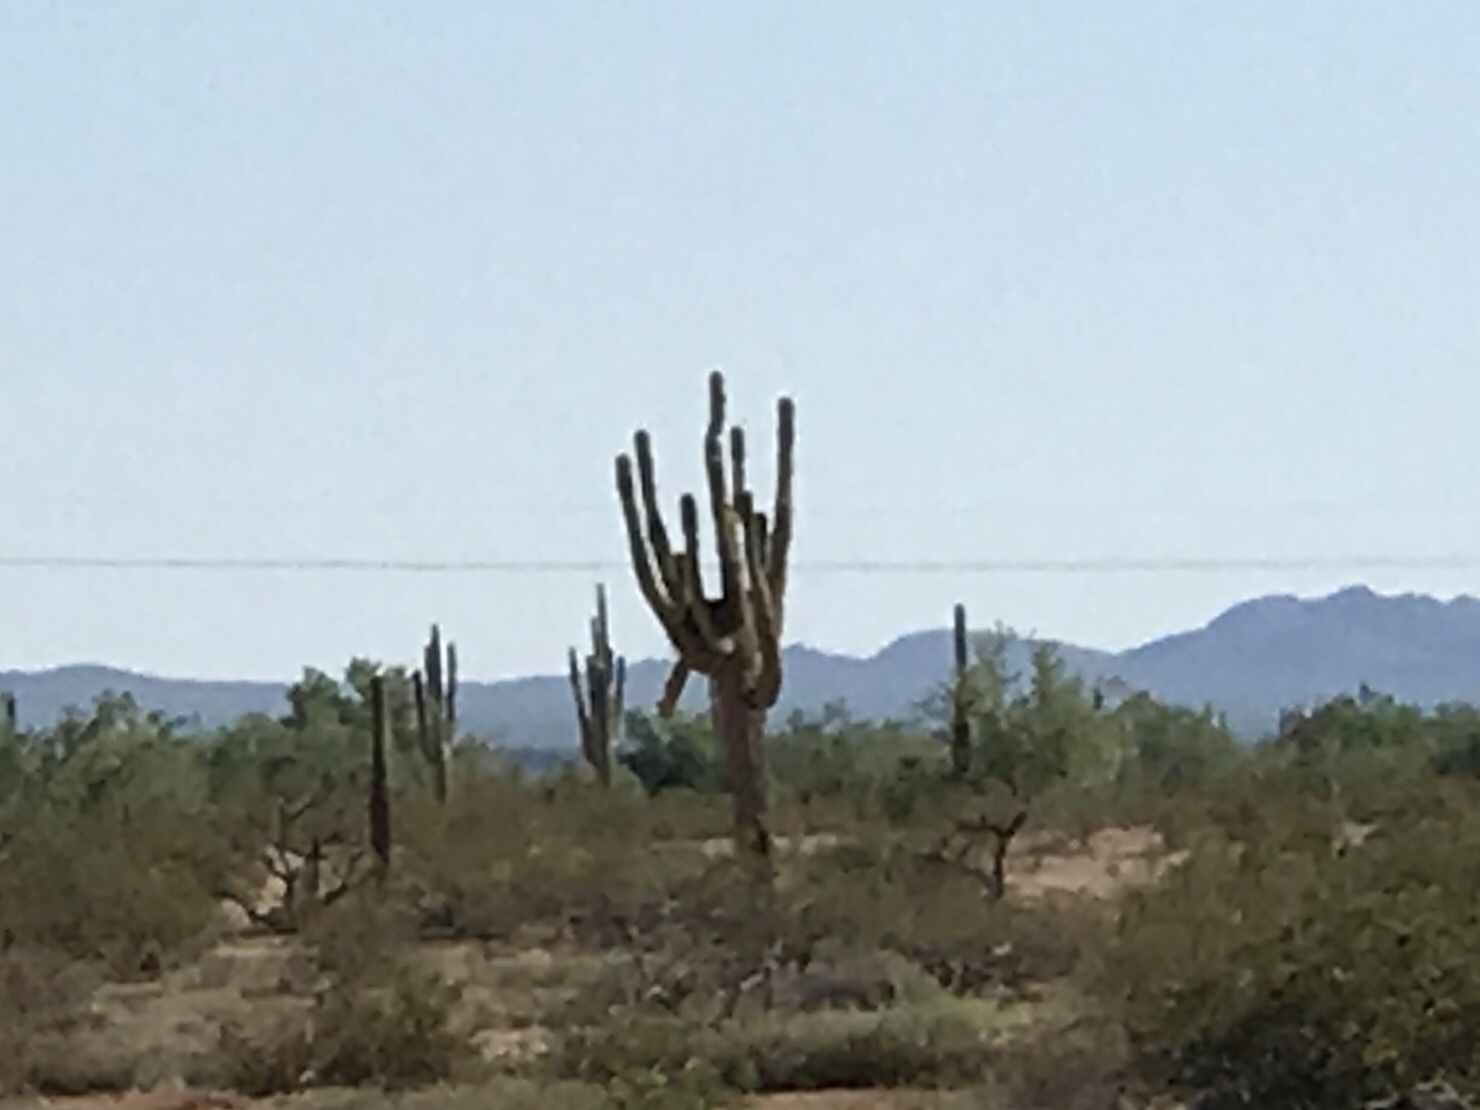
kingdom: Plantae
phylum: Tracheophyta
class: Magnoliopsida
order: Caryophyllales
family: Cactaceae
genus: Carnegiea
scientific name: Carnegiea gigantea
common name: Saguaro
